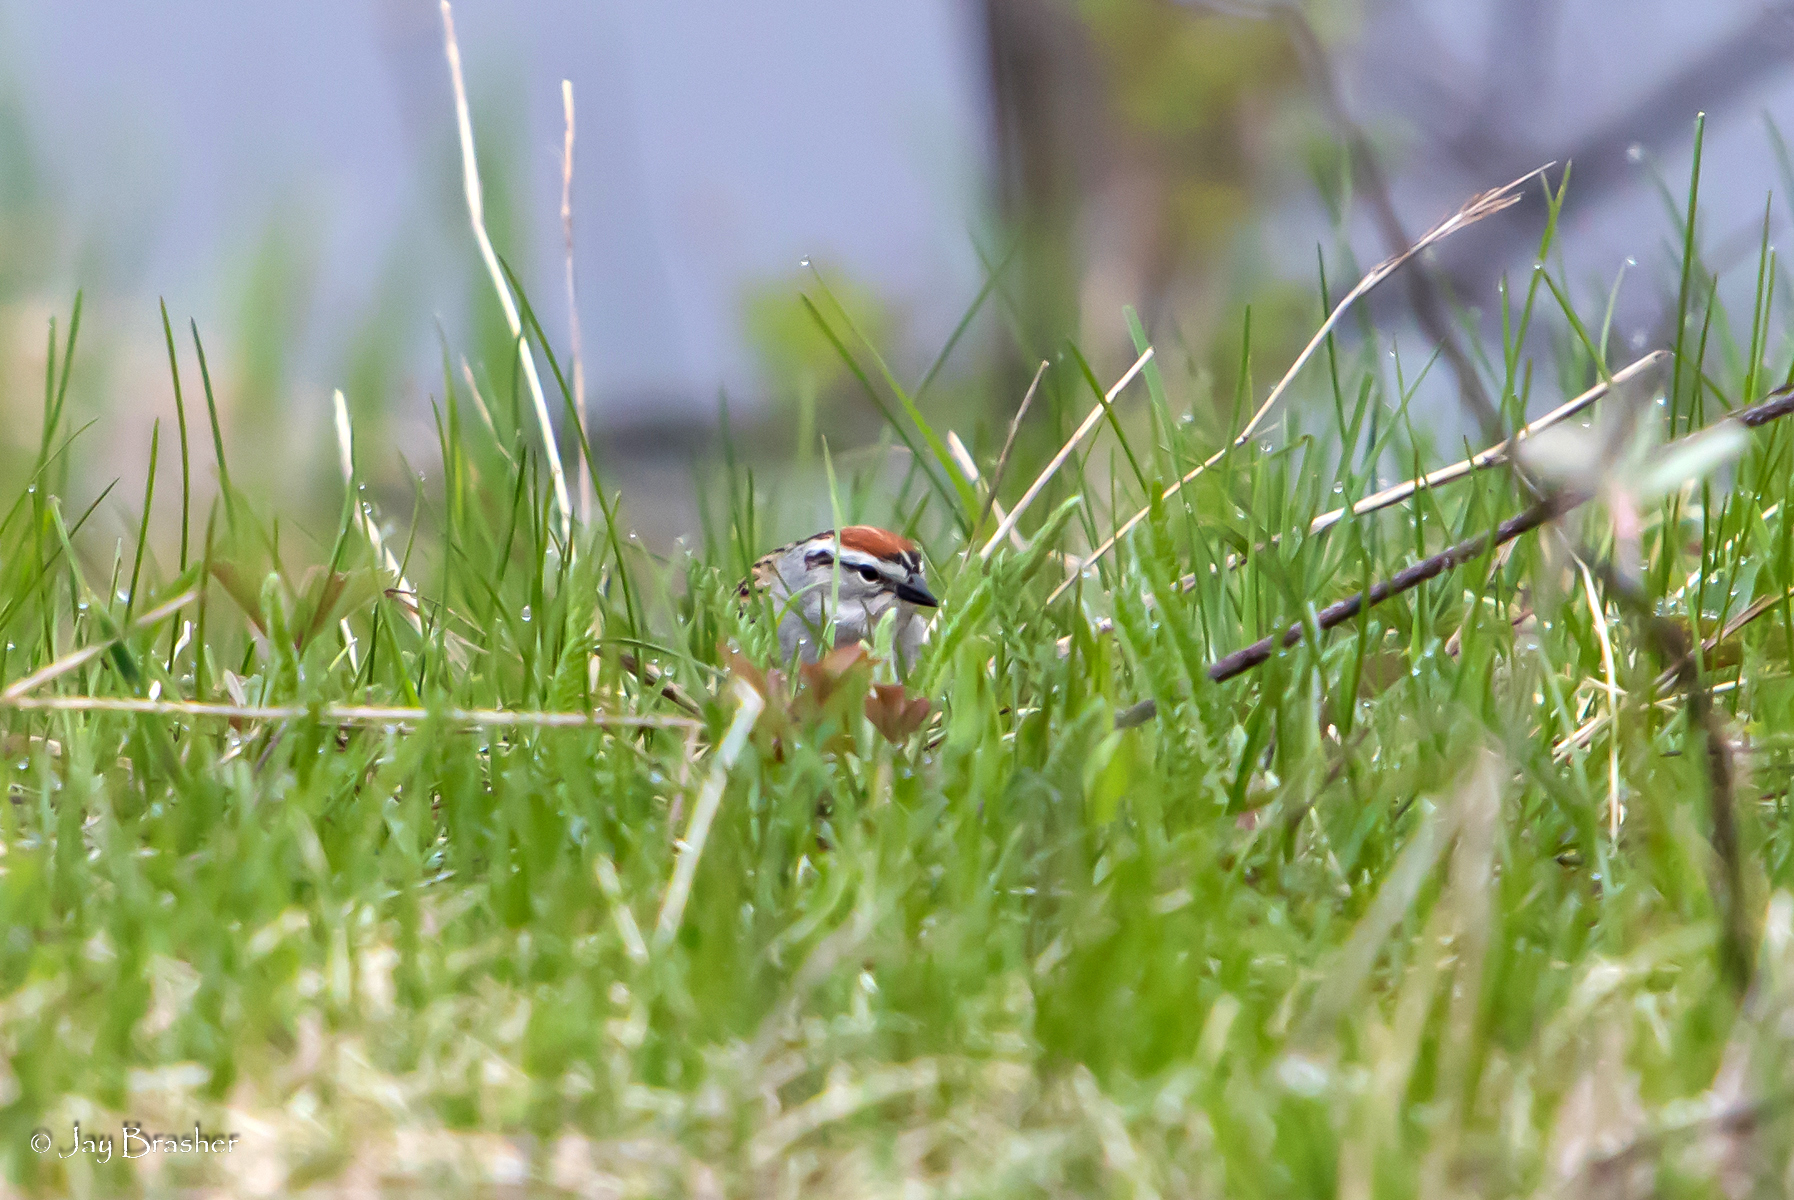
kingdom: Animalia
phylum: Chordata
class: Aves
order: Passeriformes
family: Passerellidae
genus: Spizella
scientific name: Spizella passerina
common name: Chipping sparrow
